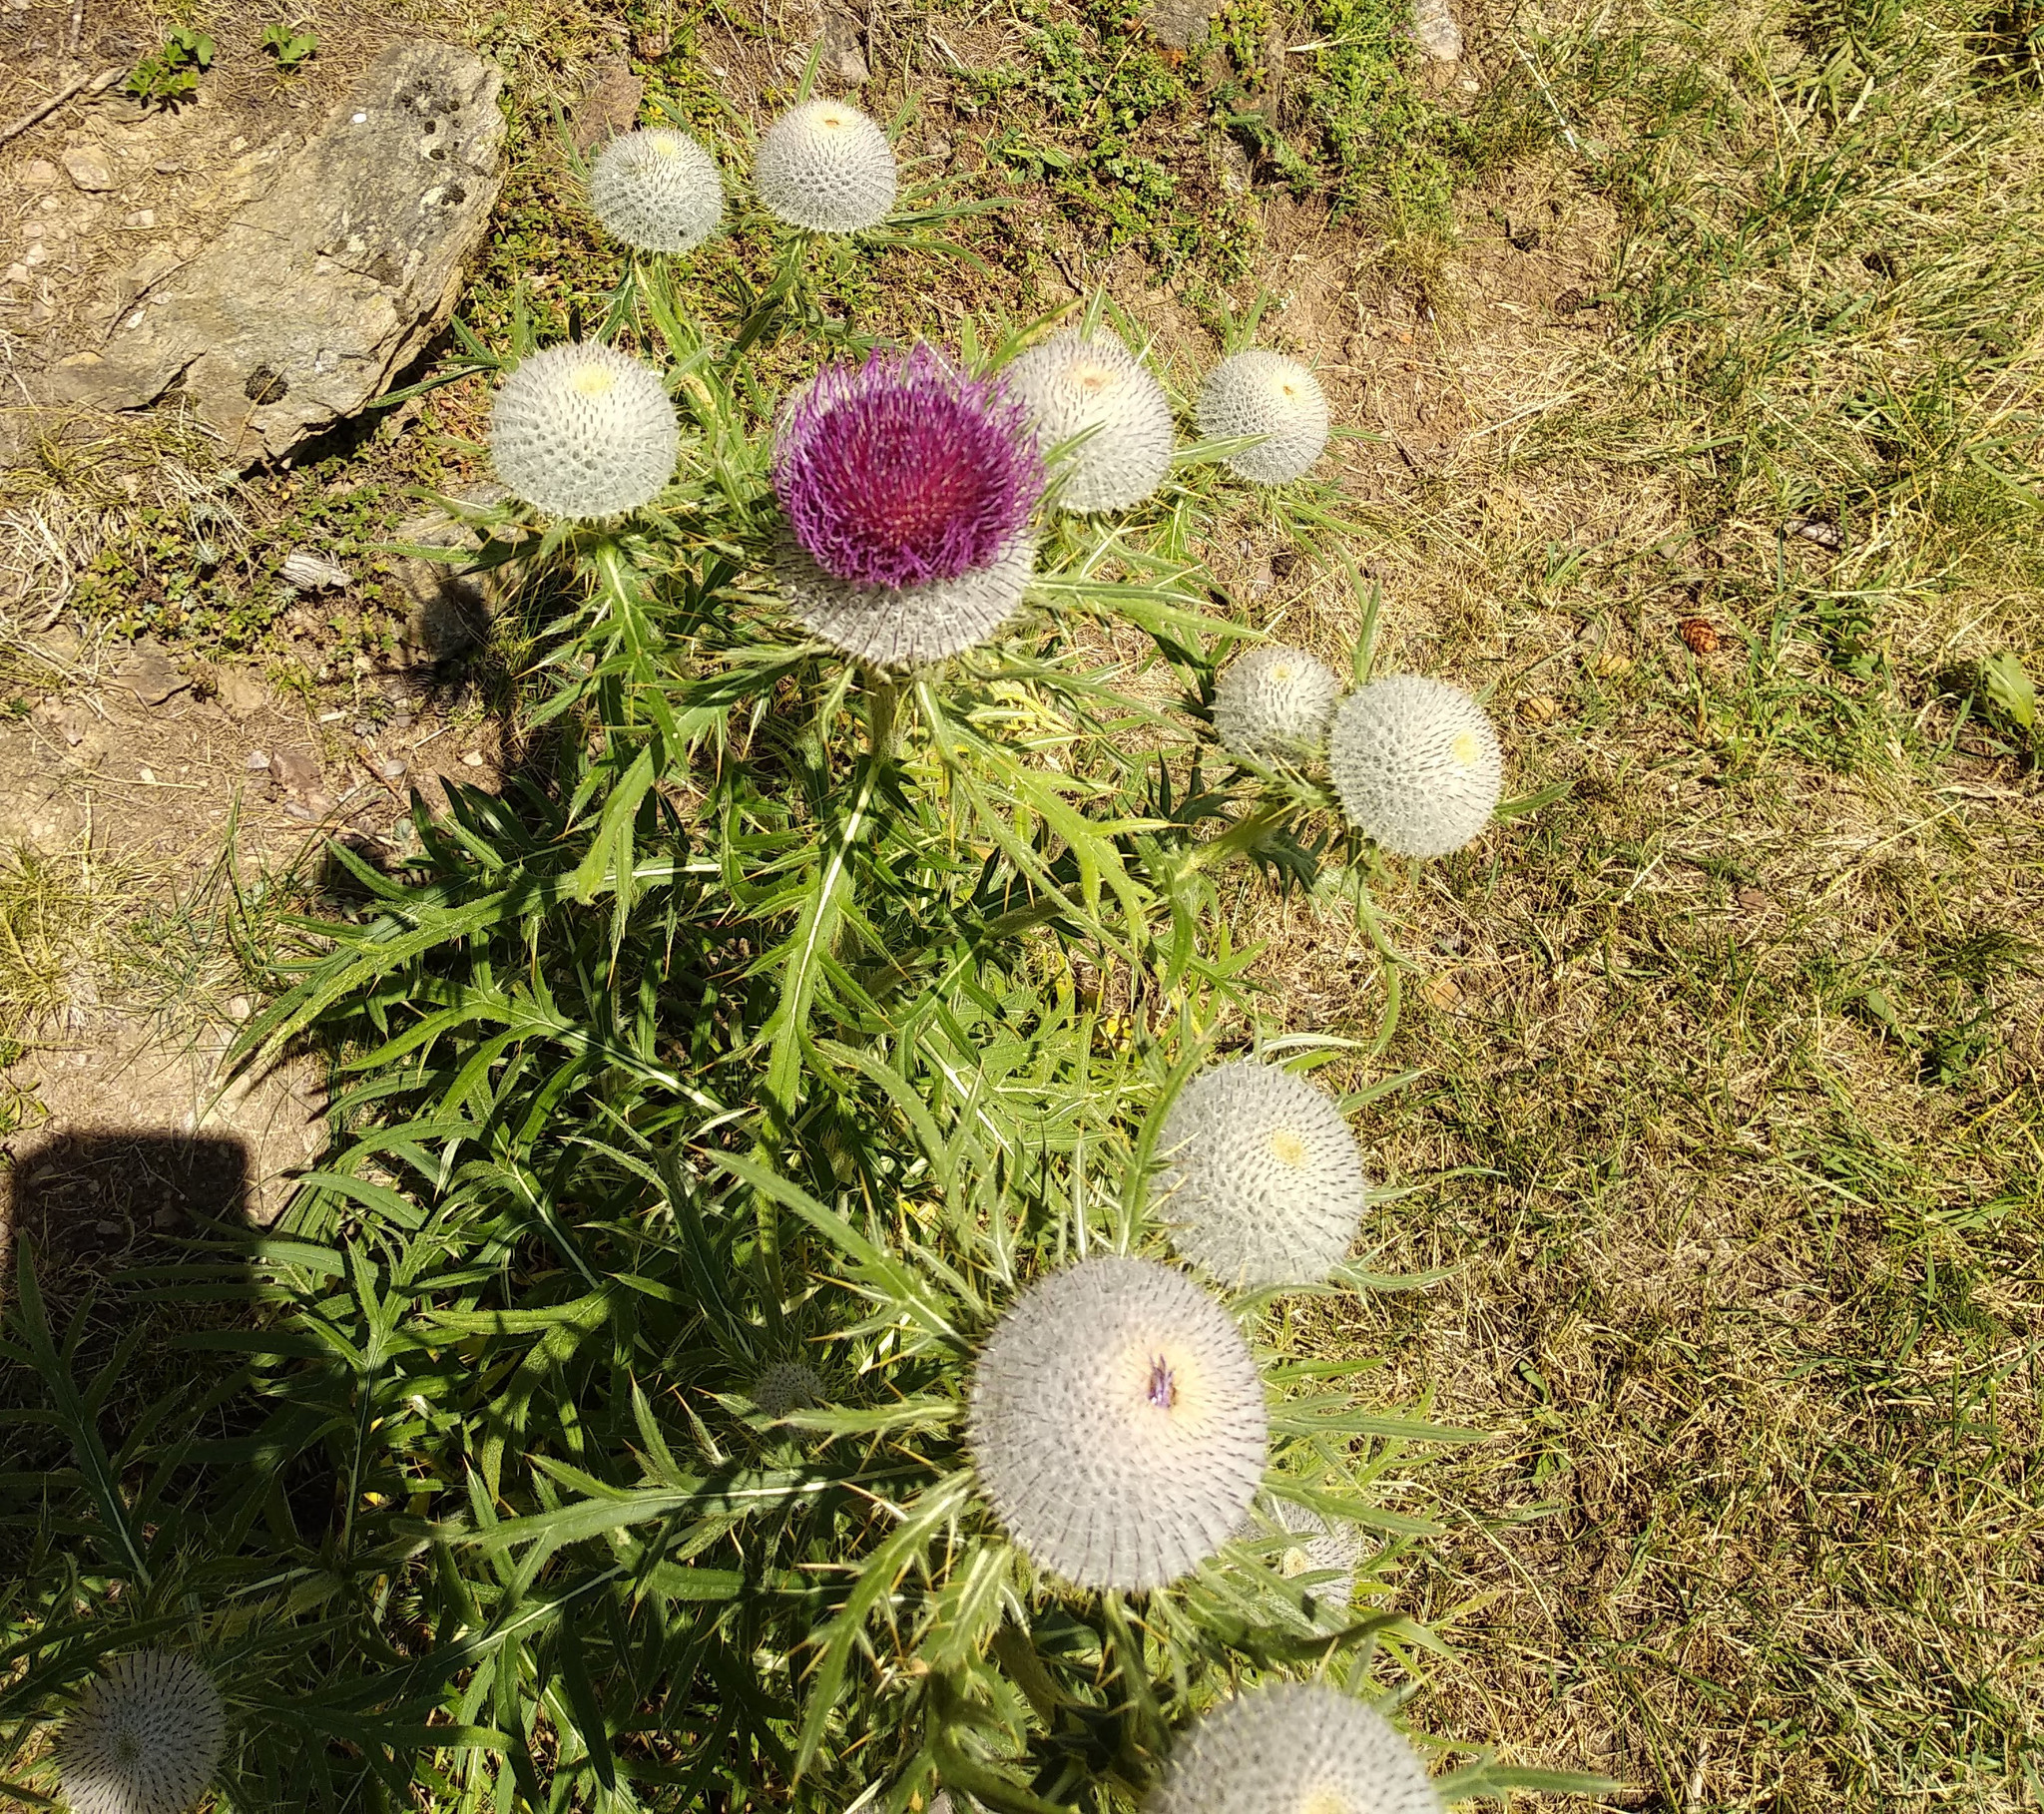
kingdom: Plantae
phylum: Tracheophyta
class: Magnoliopsida
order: Asterales
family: Asteraceae
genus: Lophiolepis
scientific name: Lophiolepis eriophora
